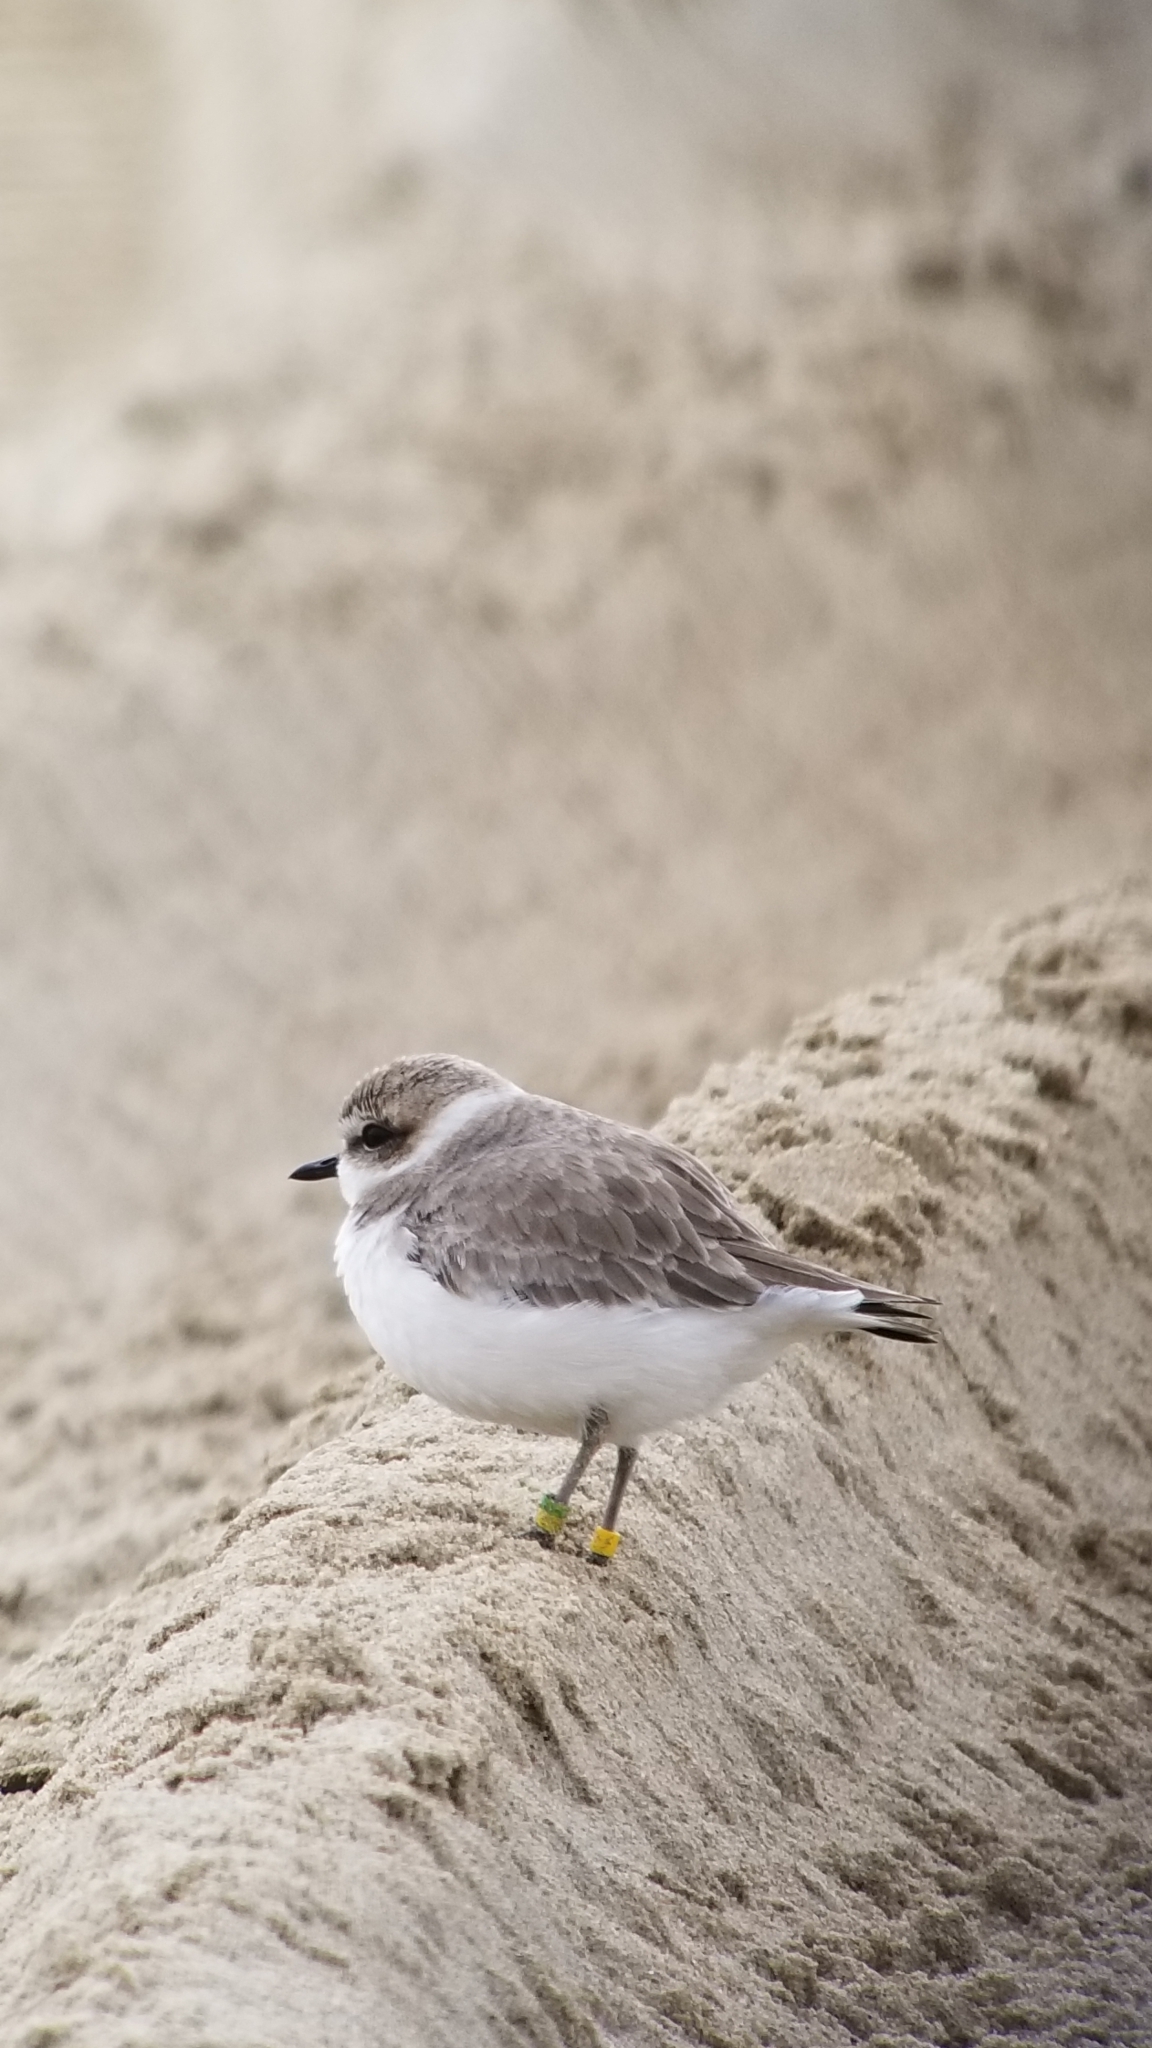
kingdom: Animalia
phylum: Chordata
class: Aves
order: Charadriiformes
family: Charadriidae
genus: Anarhynchus
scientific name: Anarhynchus
